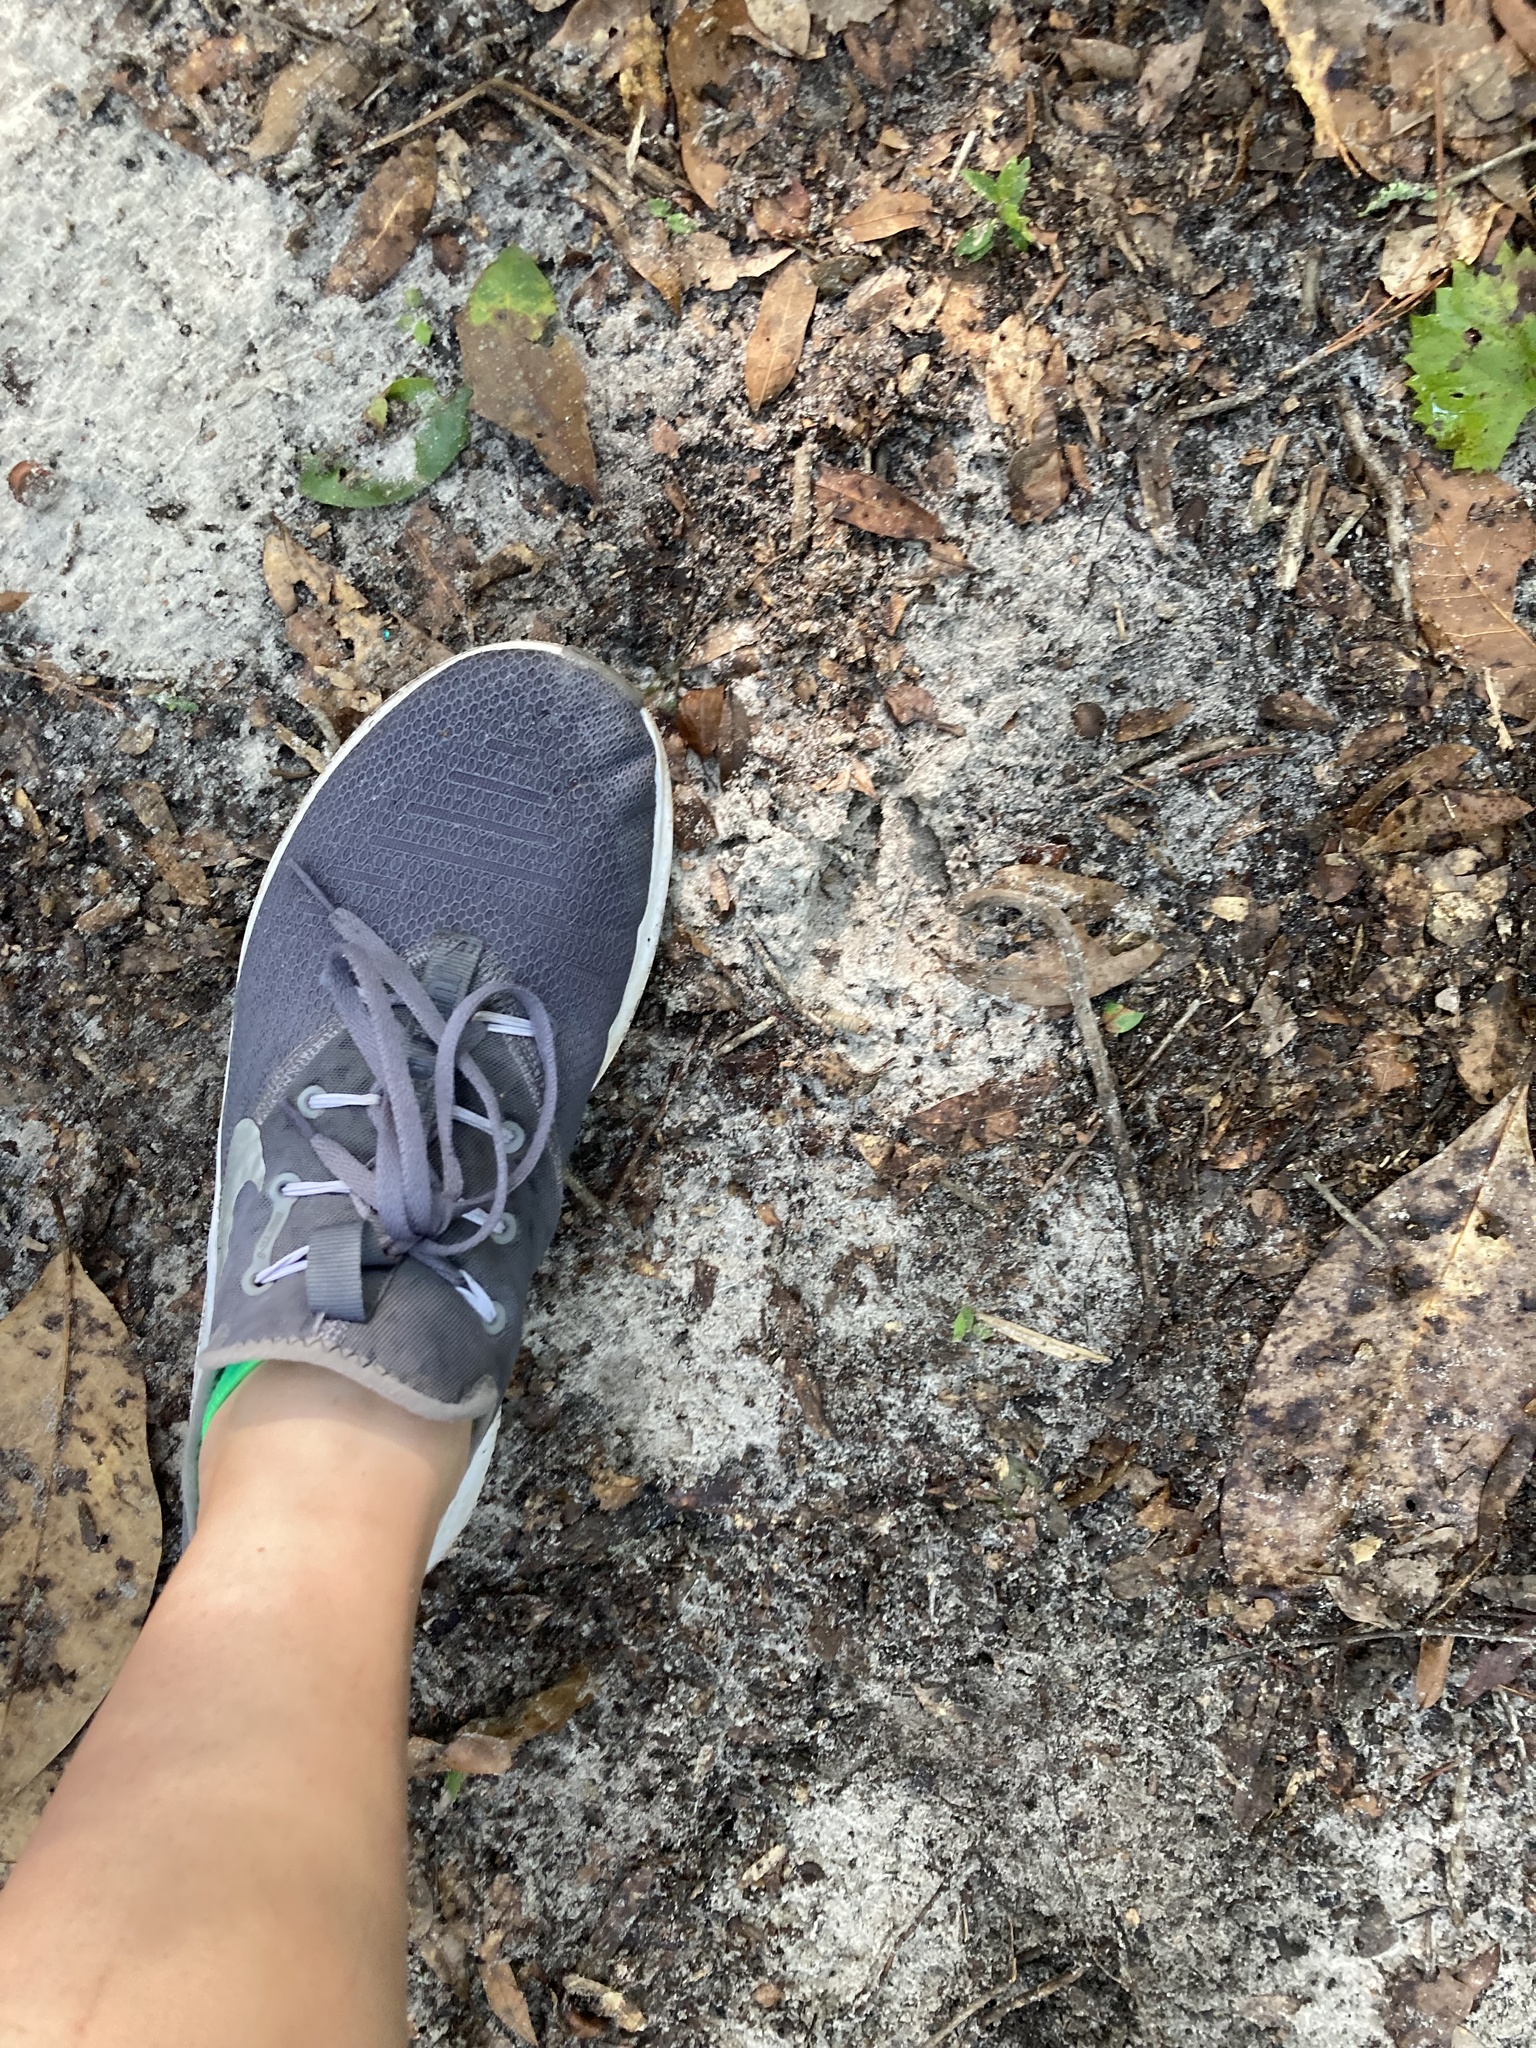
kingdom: Animalia
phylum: Chordata
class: Mammalia
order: Artiodactyla
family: Cervidae
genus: Odocoileus
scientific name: Odocoileus virginianus
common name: White-tailed deer
